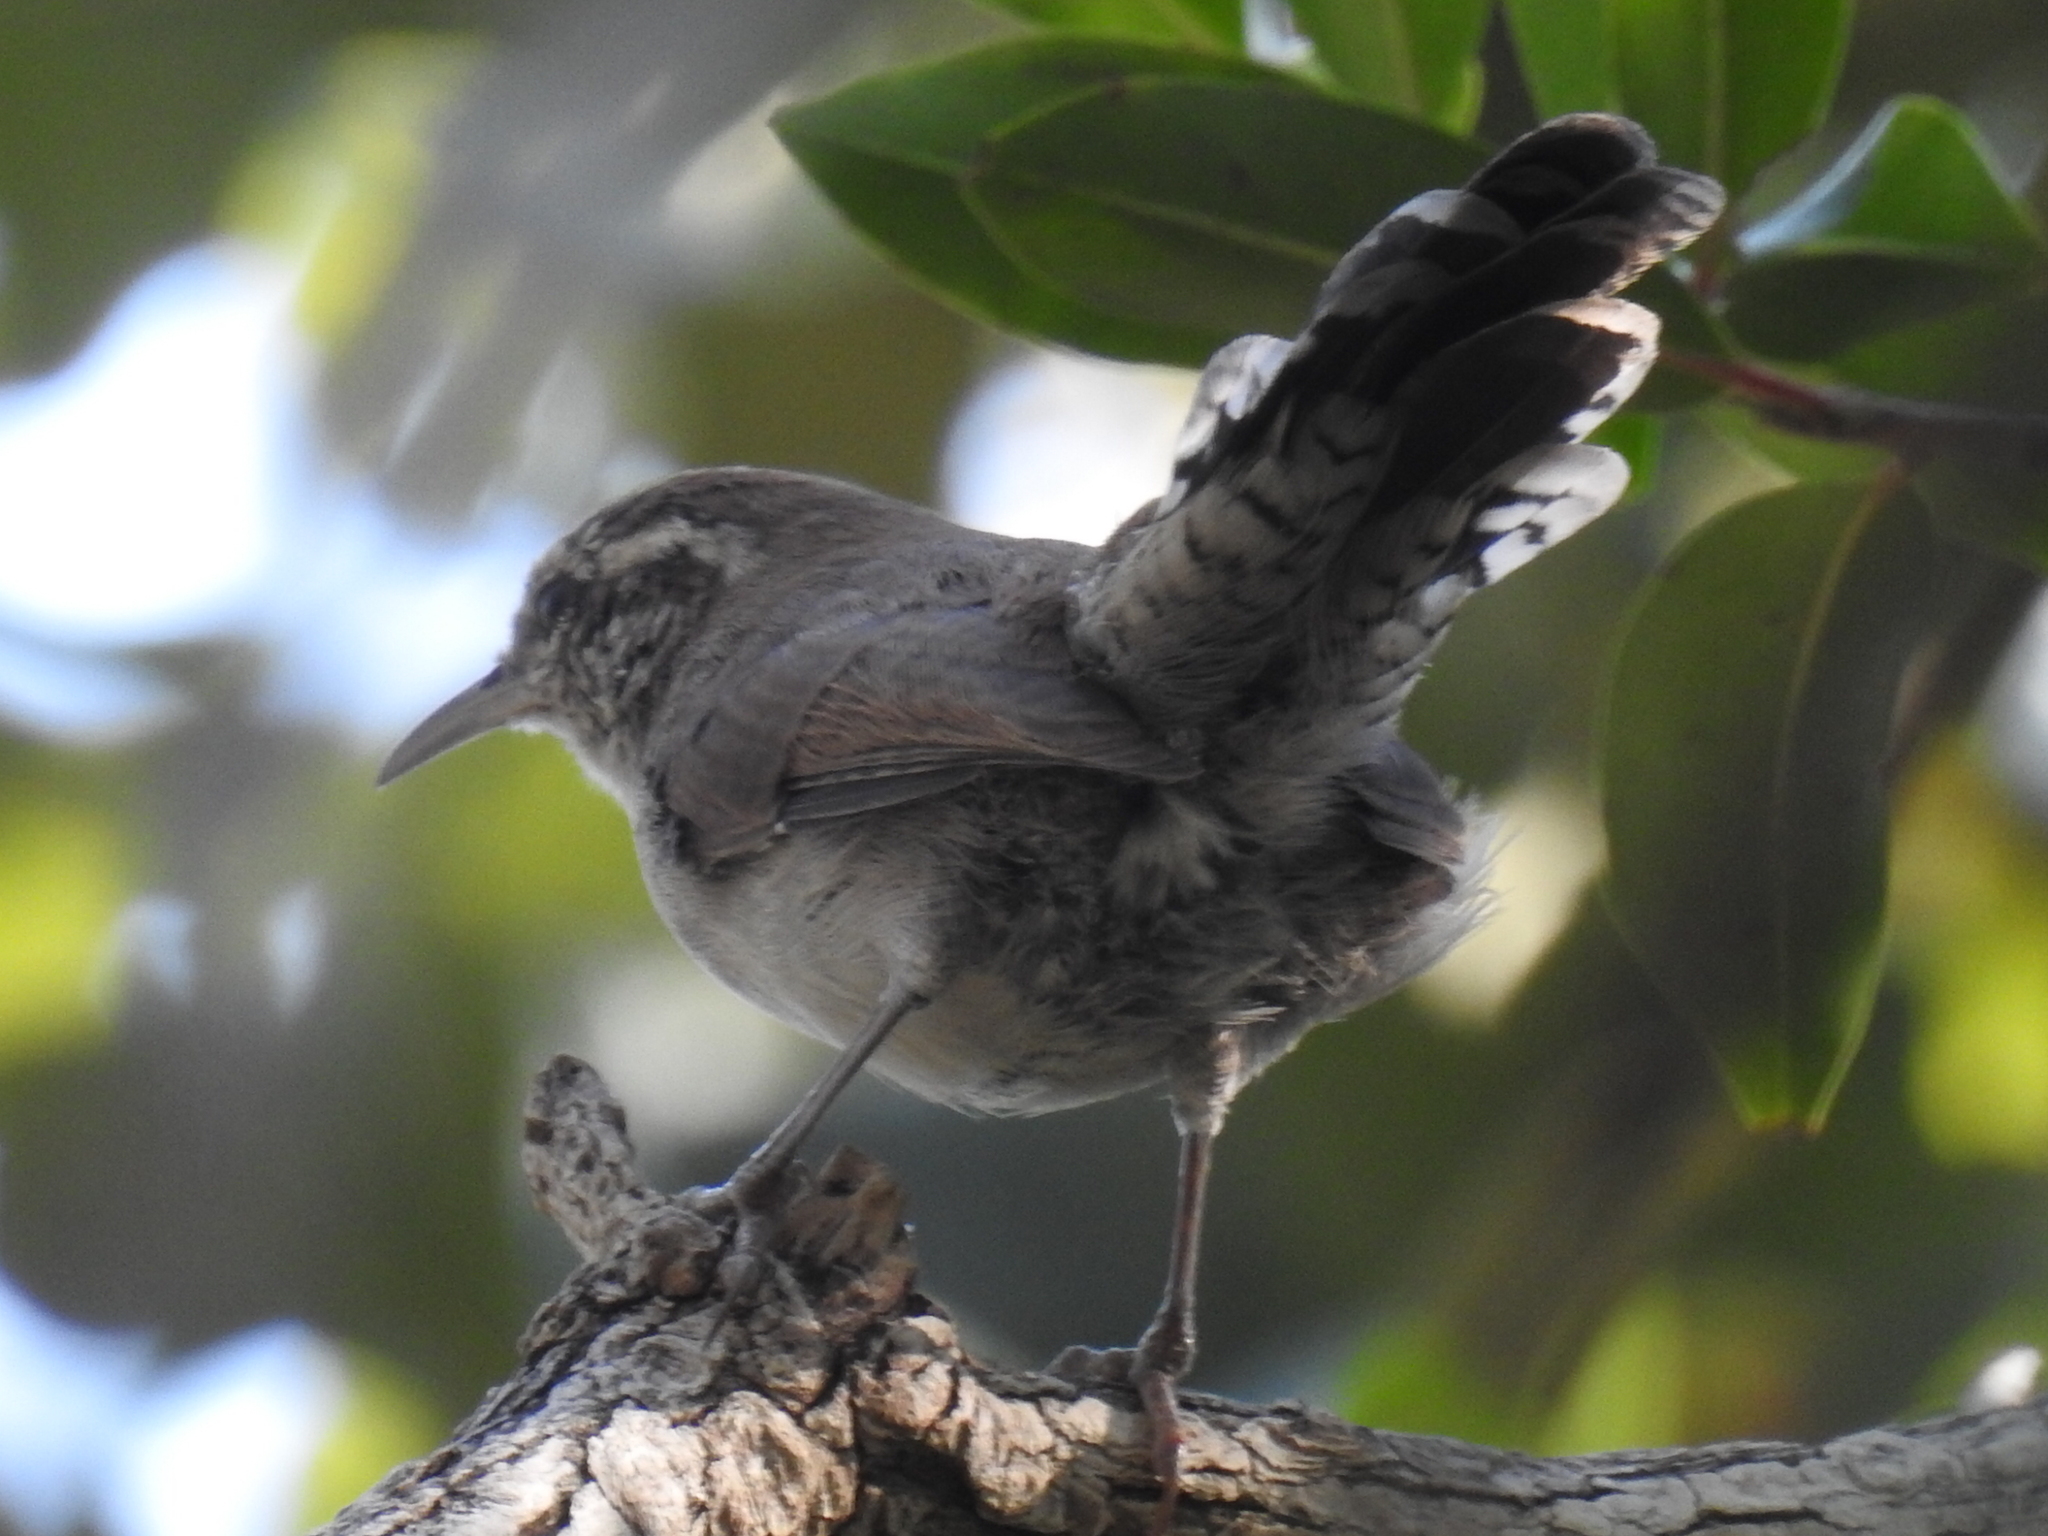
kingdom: Animalia
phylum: Chordata
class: Aves
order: Passeriformes
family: Troglodytidae
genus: Thryomanes
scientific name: Thryomanes bewickii
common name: Bewick's wren
